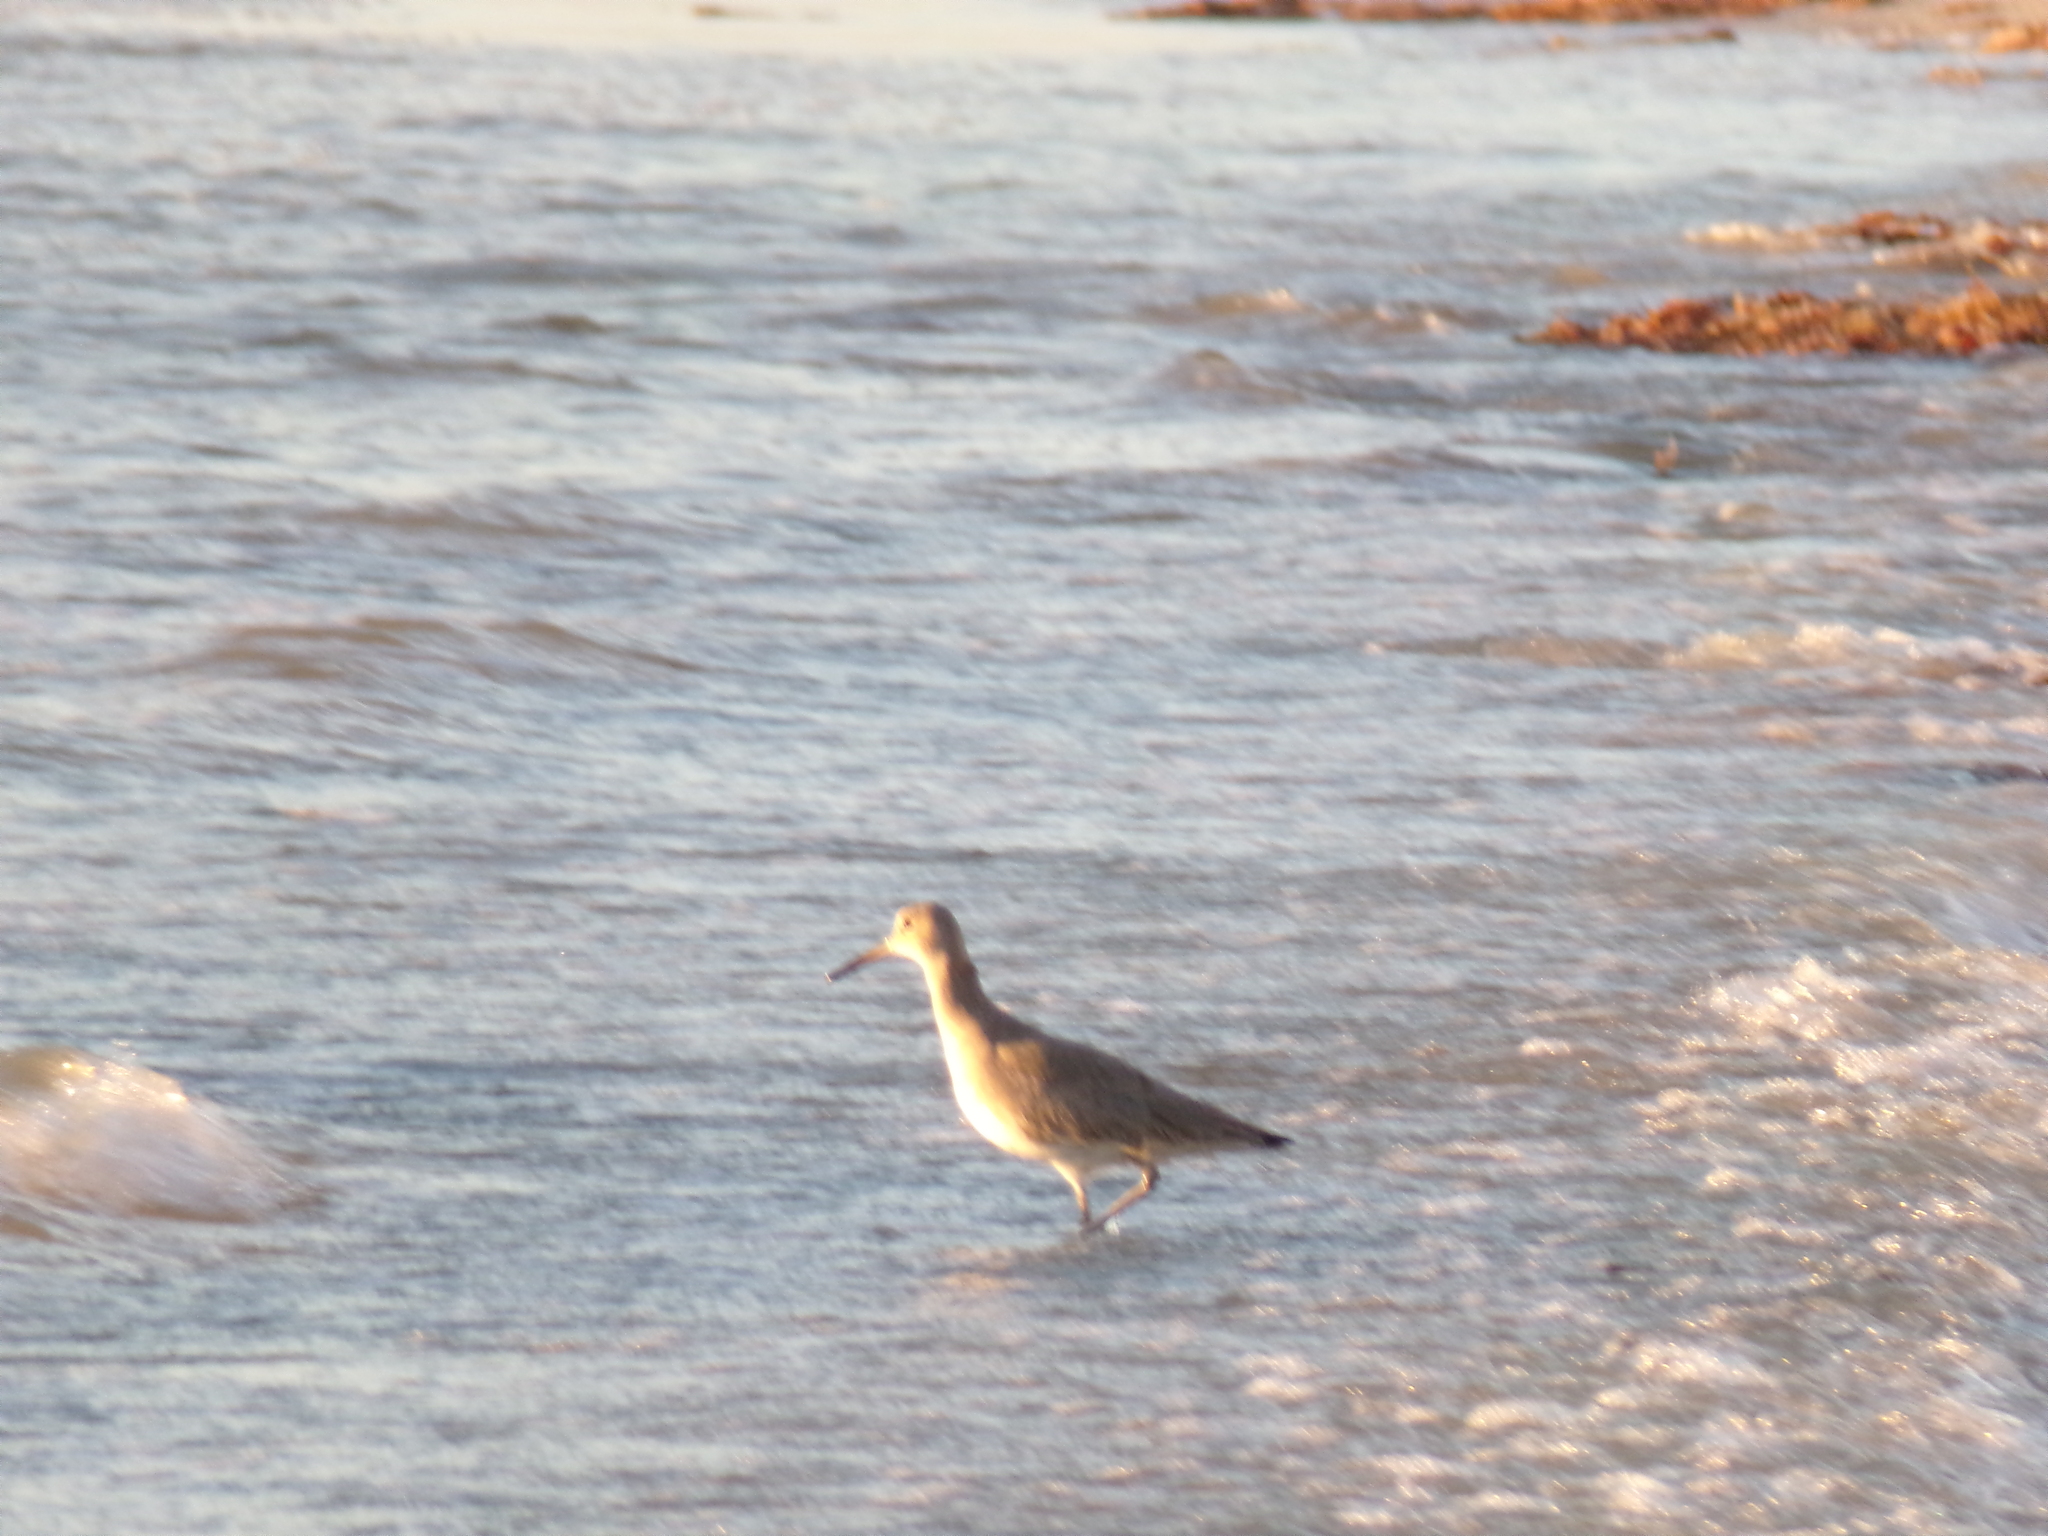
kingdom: Animalia
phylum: Chordata
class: Aves
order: Charadriiformes
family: Scolopacidae
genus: Tringa
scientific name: Tringa semipalmata
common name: Willet
